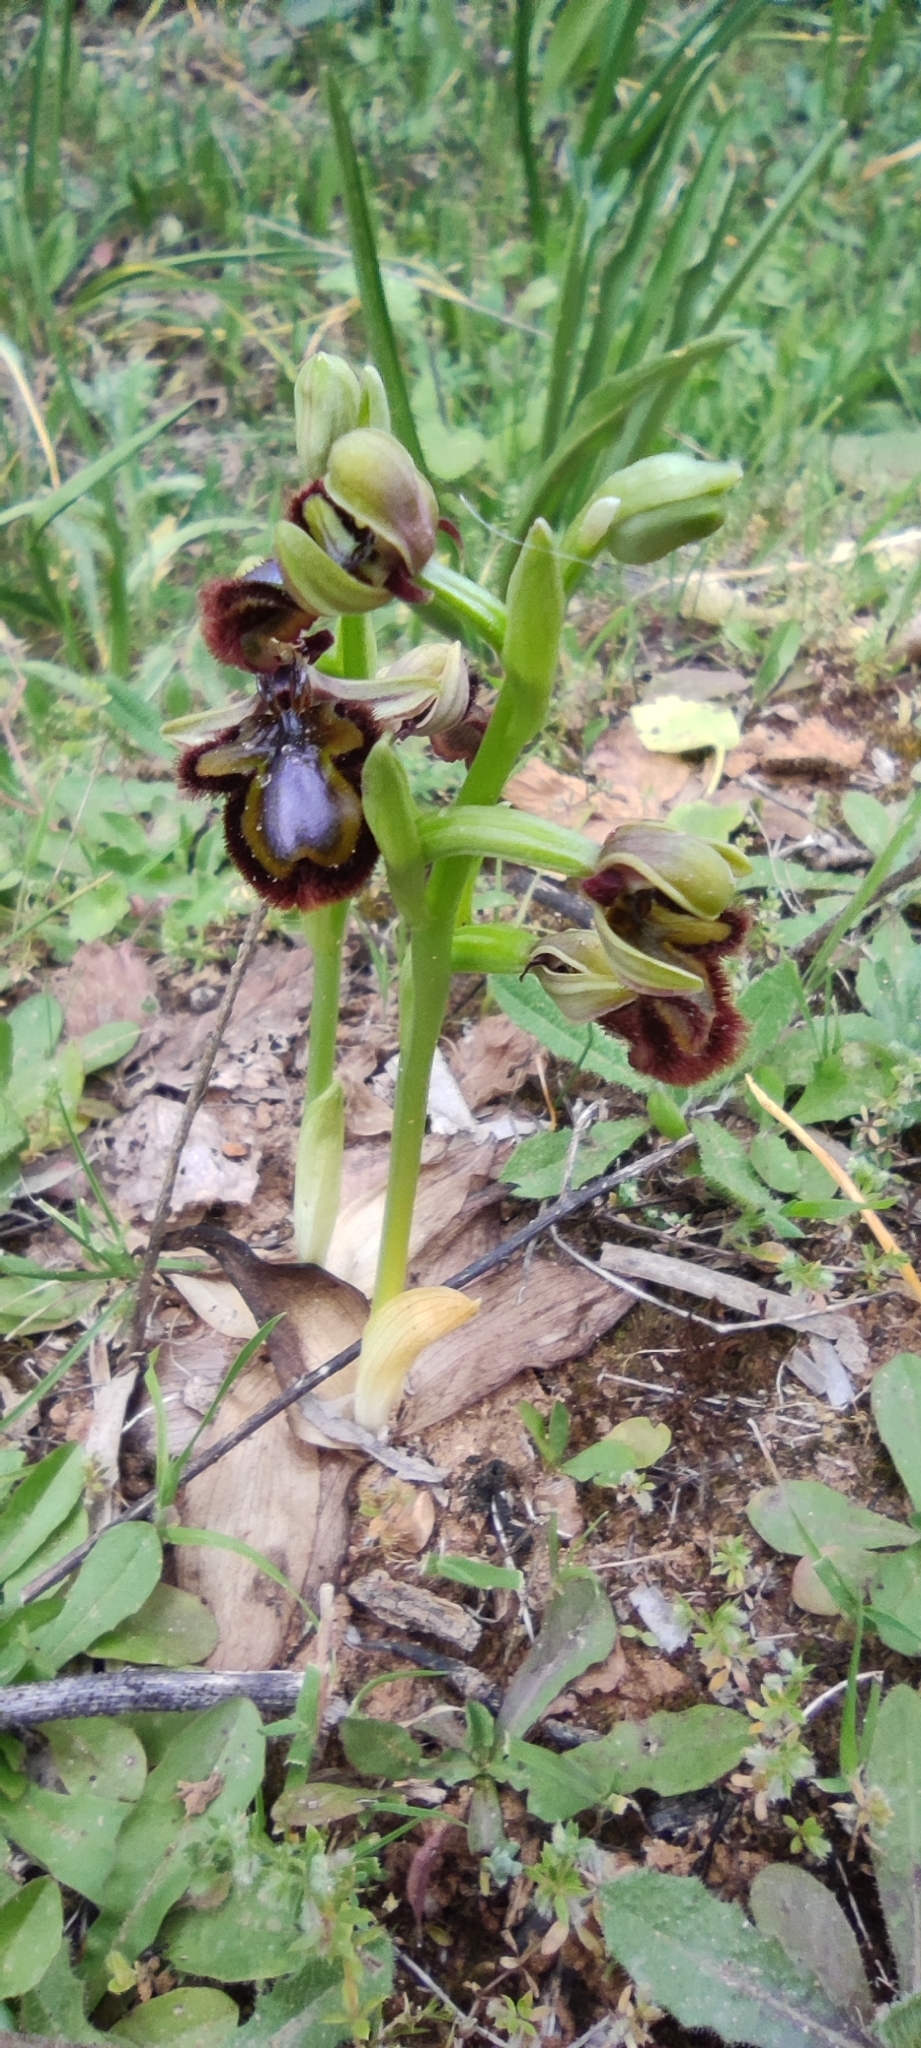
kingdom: Plantae
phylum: Tracheophyta
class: Liliopsida
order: Asparagales
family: Orchidaceae
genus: Ophrys
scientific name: Ophrys speculum
